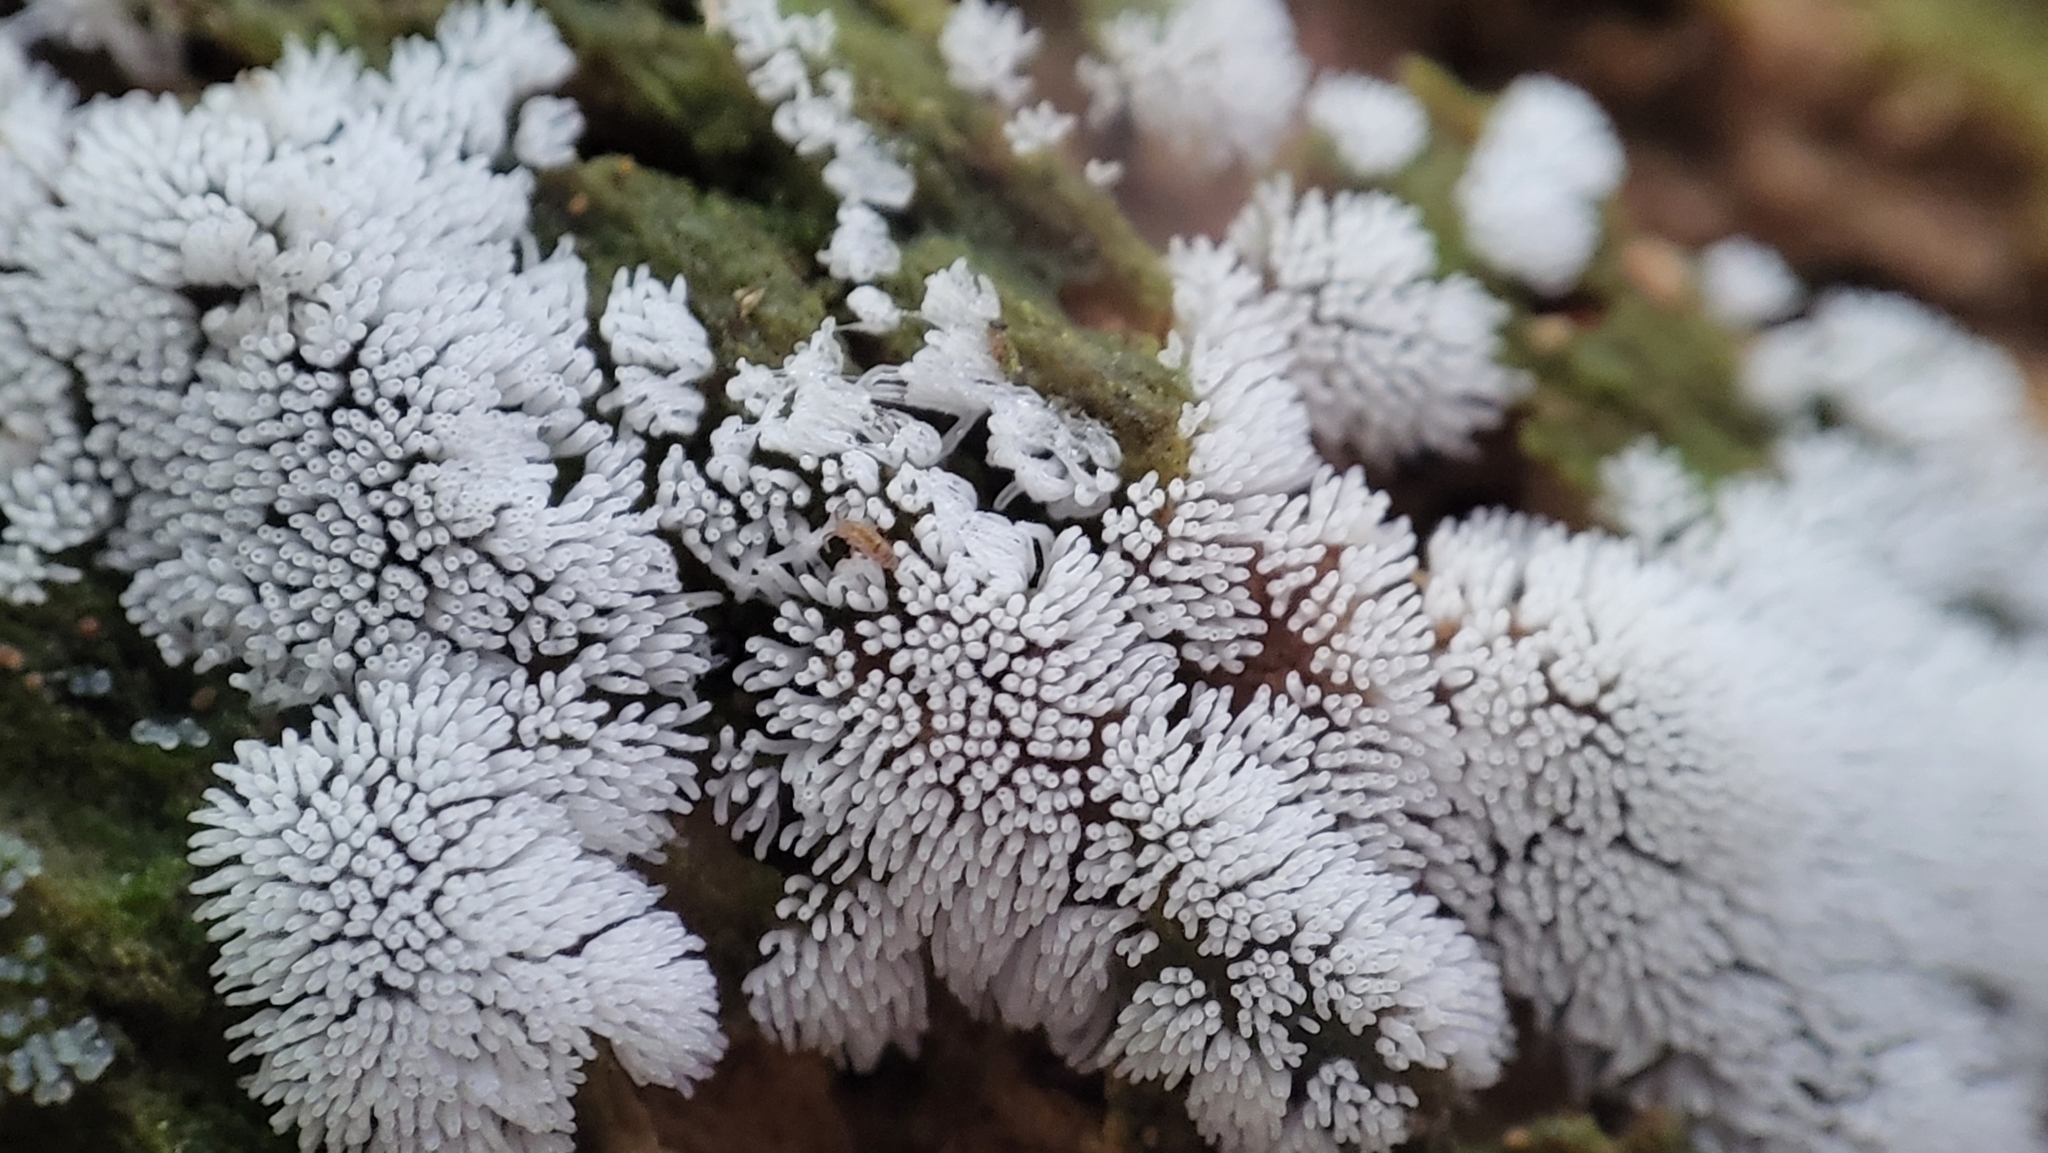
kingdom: Protozoa
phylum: Mycetozoa
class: Protosteliomycetes
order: Ceratiomyxales
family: Ceratiomyxaceae
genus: Ceratiomyxa
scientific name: Ceratiomyxa fruticulosa
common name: Honeycomb coral slime mold
